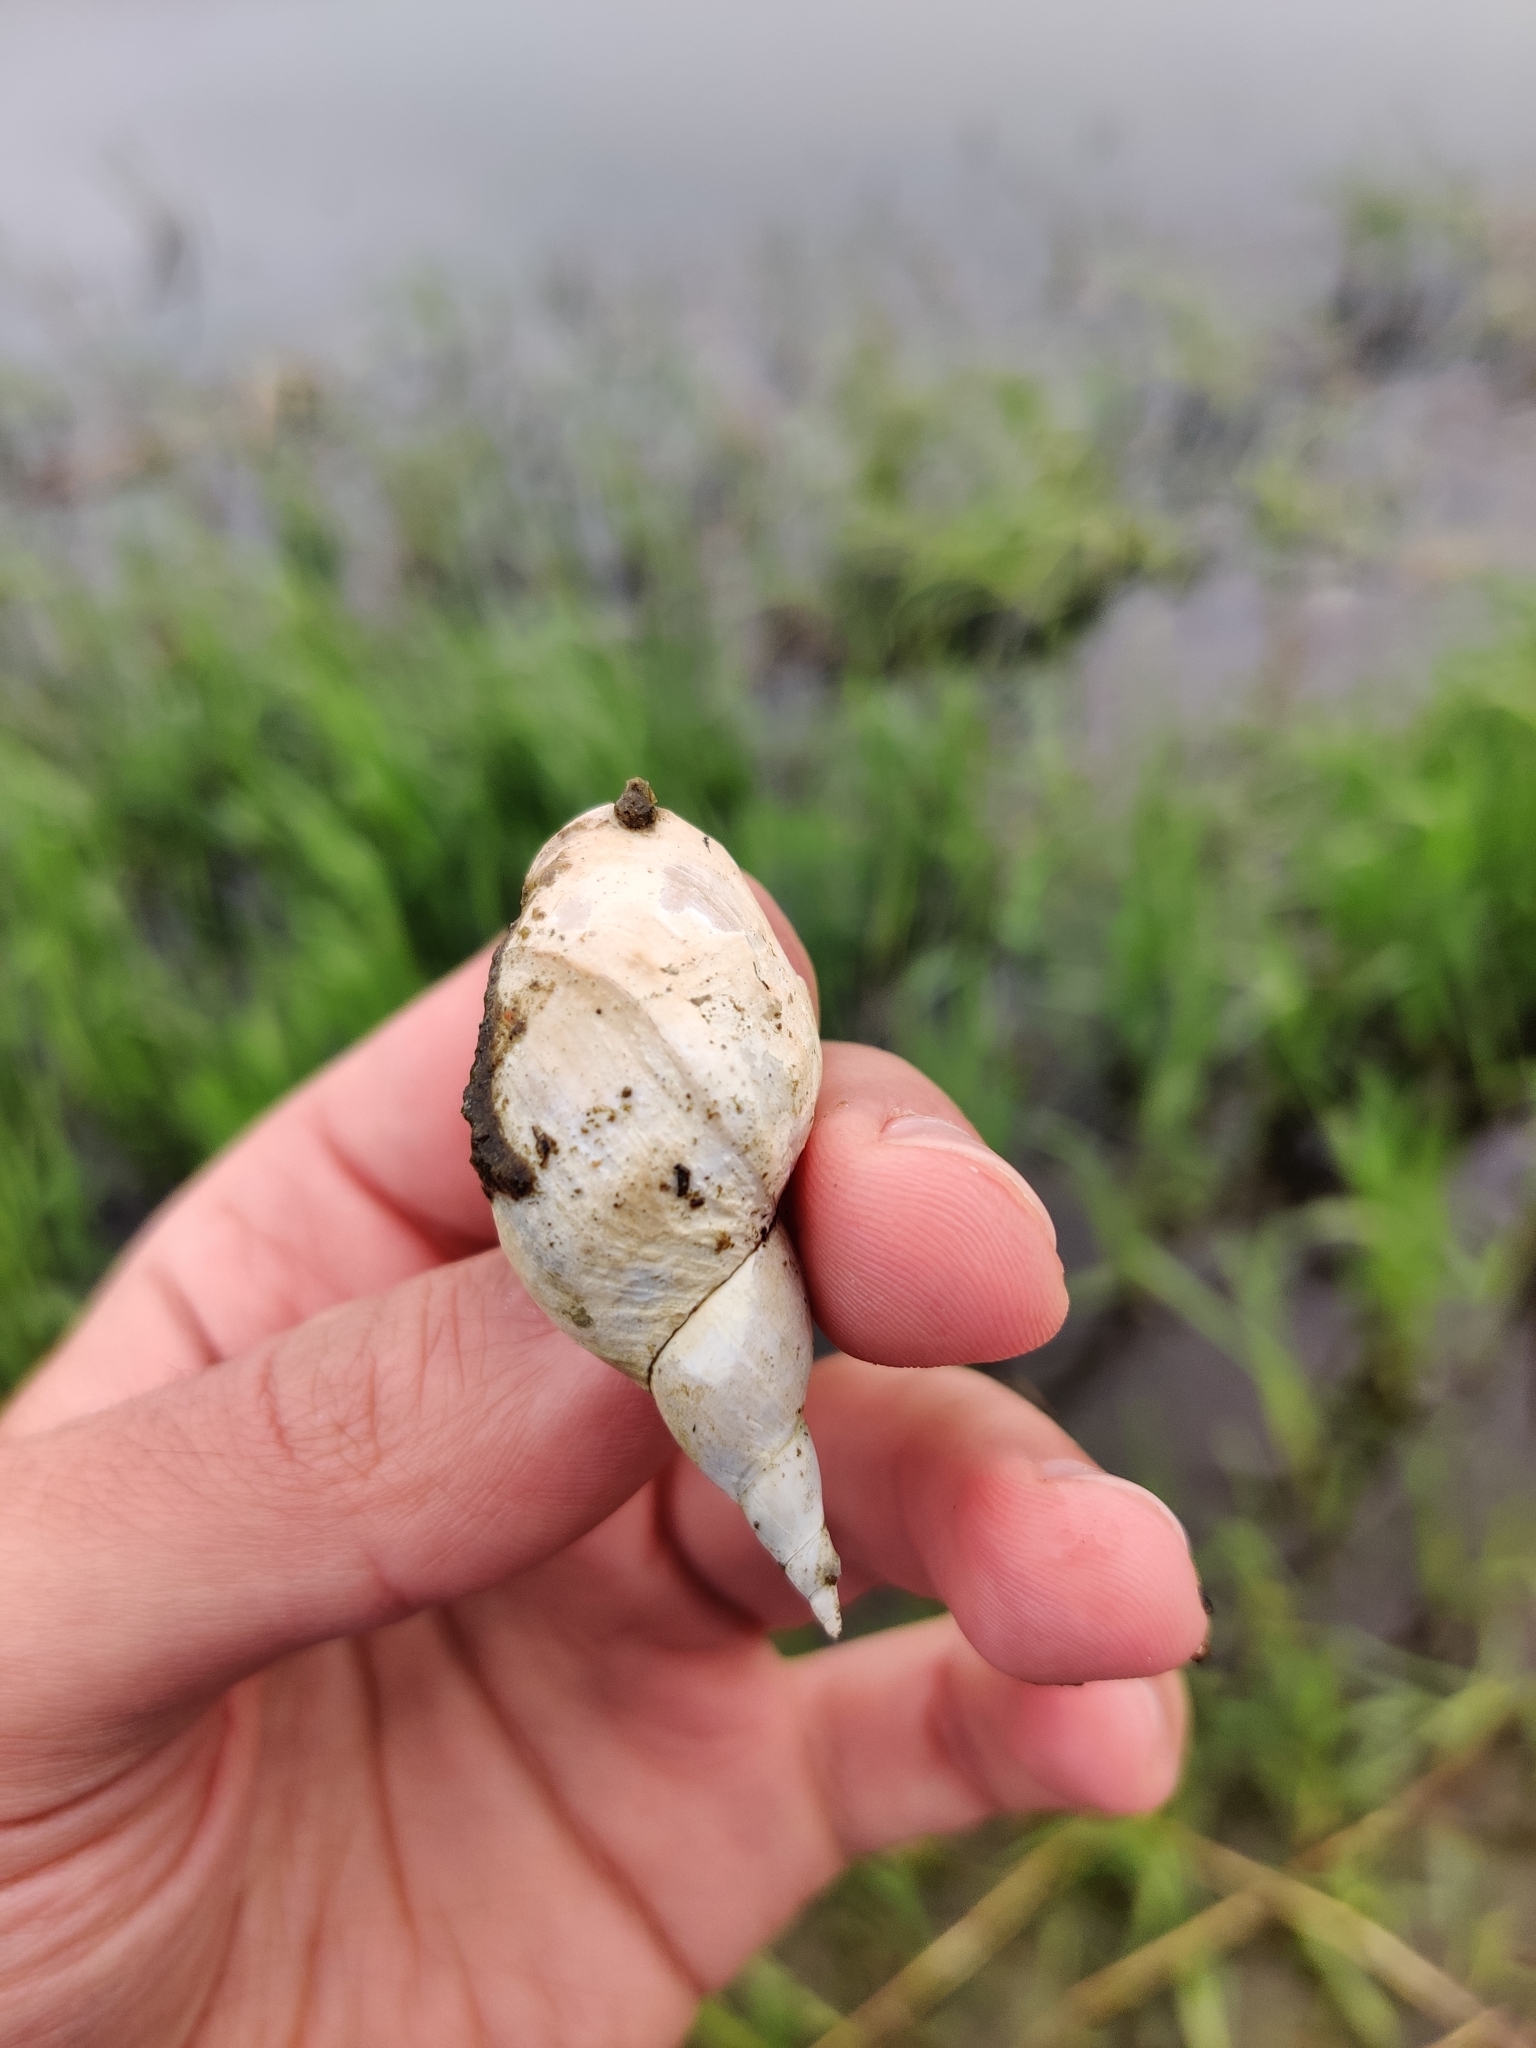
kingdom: Animalia
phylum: Mollusca
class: Gastropoda
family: Lymnaeidae
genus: Lymnaea
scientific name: Lymnaea stagnalis
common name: Great pond snail
